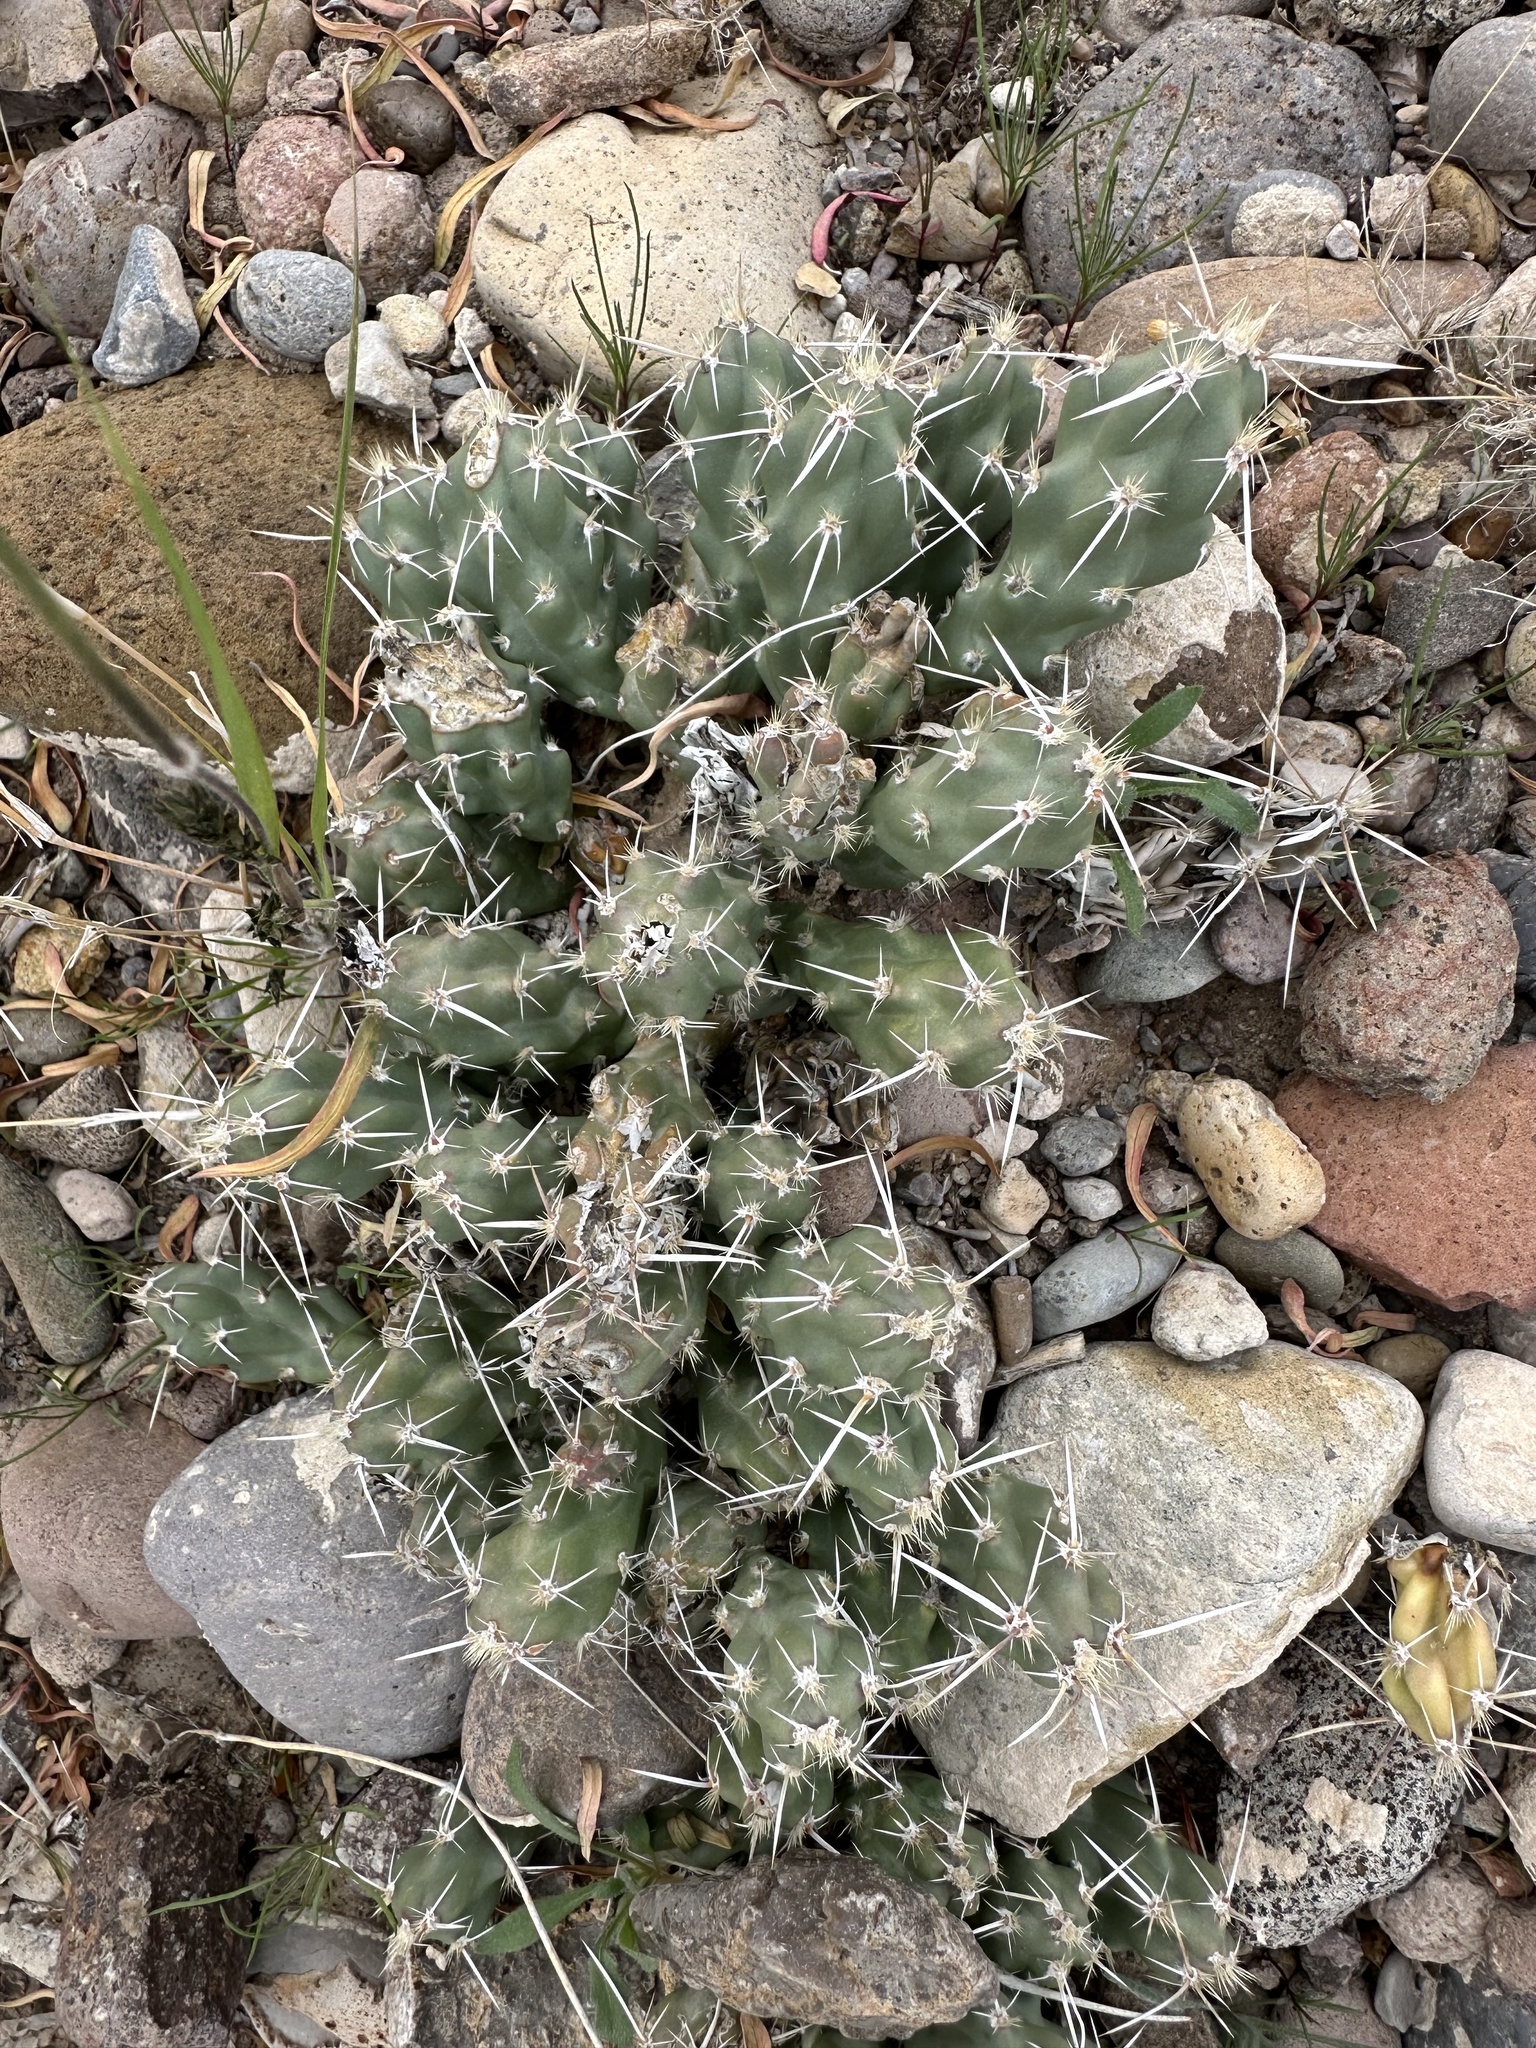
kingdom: Plantae
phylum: Tracheophyta
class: Magnoliopsida
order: Caryophyllales
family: Cactaceae
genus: Grusonia
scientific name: Grusonia aggeria
